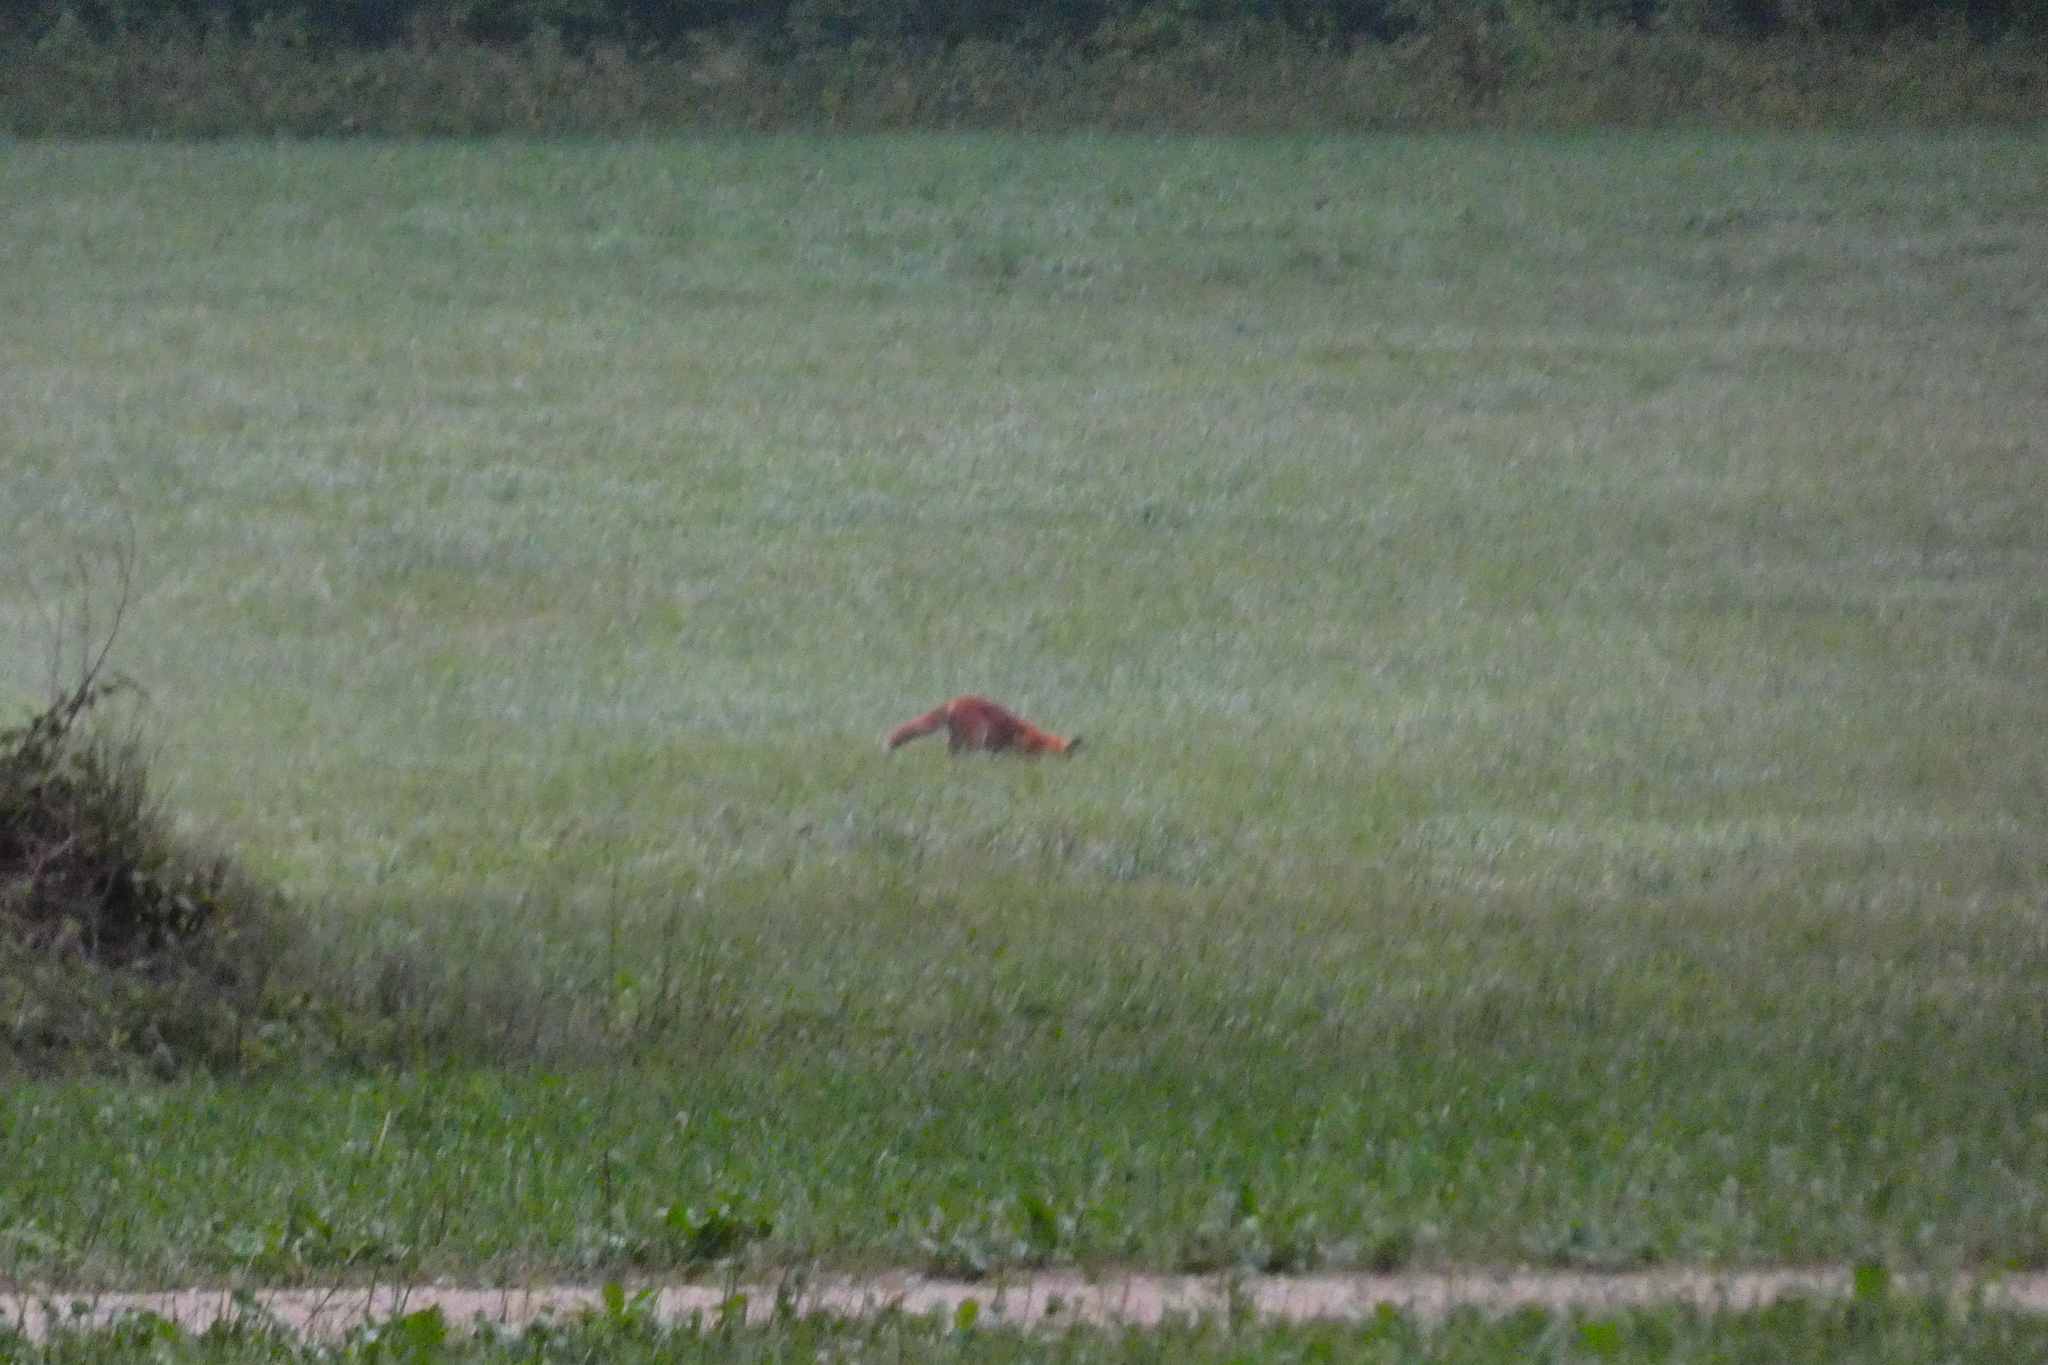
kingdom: Animalia
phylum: Chordata
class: Mammalia
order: Carnivora
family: Canidae
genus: Vulpes
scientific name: Vulpes vulpes
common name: Red fox
